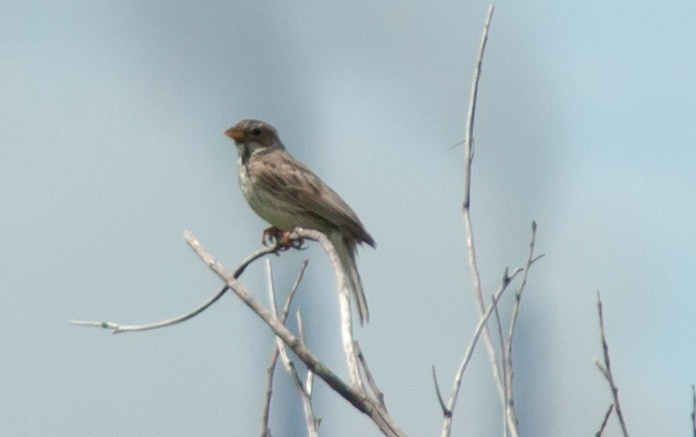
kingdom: Animalia
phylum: Chordata
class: Aves
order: Passeriformes
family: Emberizidae
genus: Emberiza
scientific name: Emberiza calandra
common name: Corn bunting
